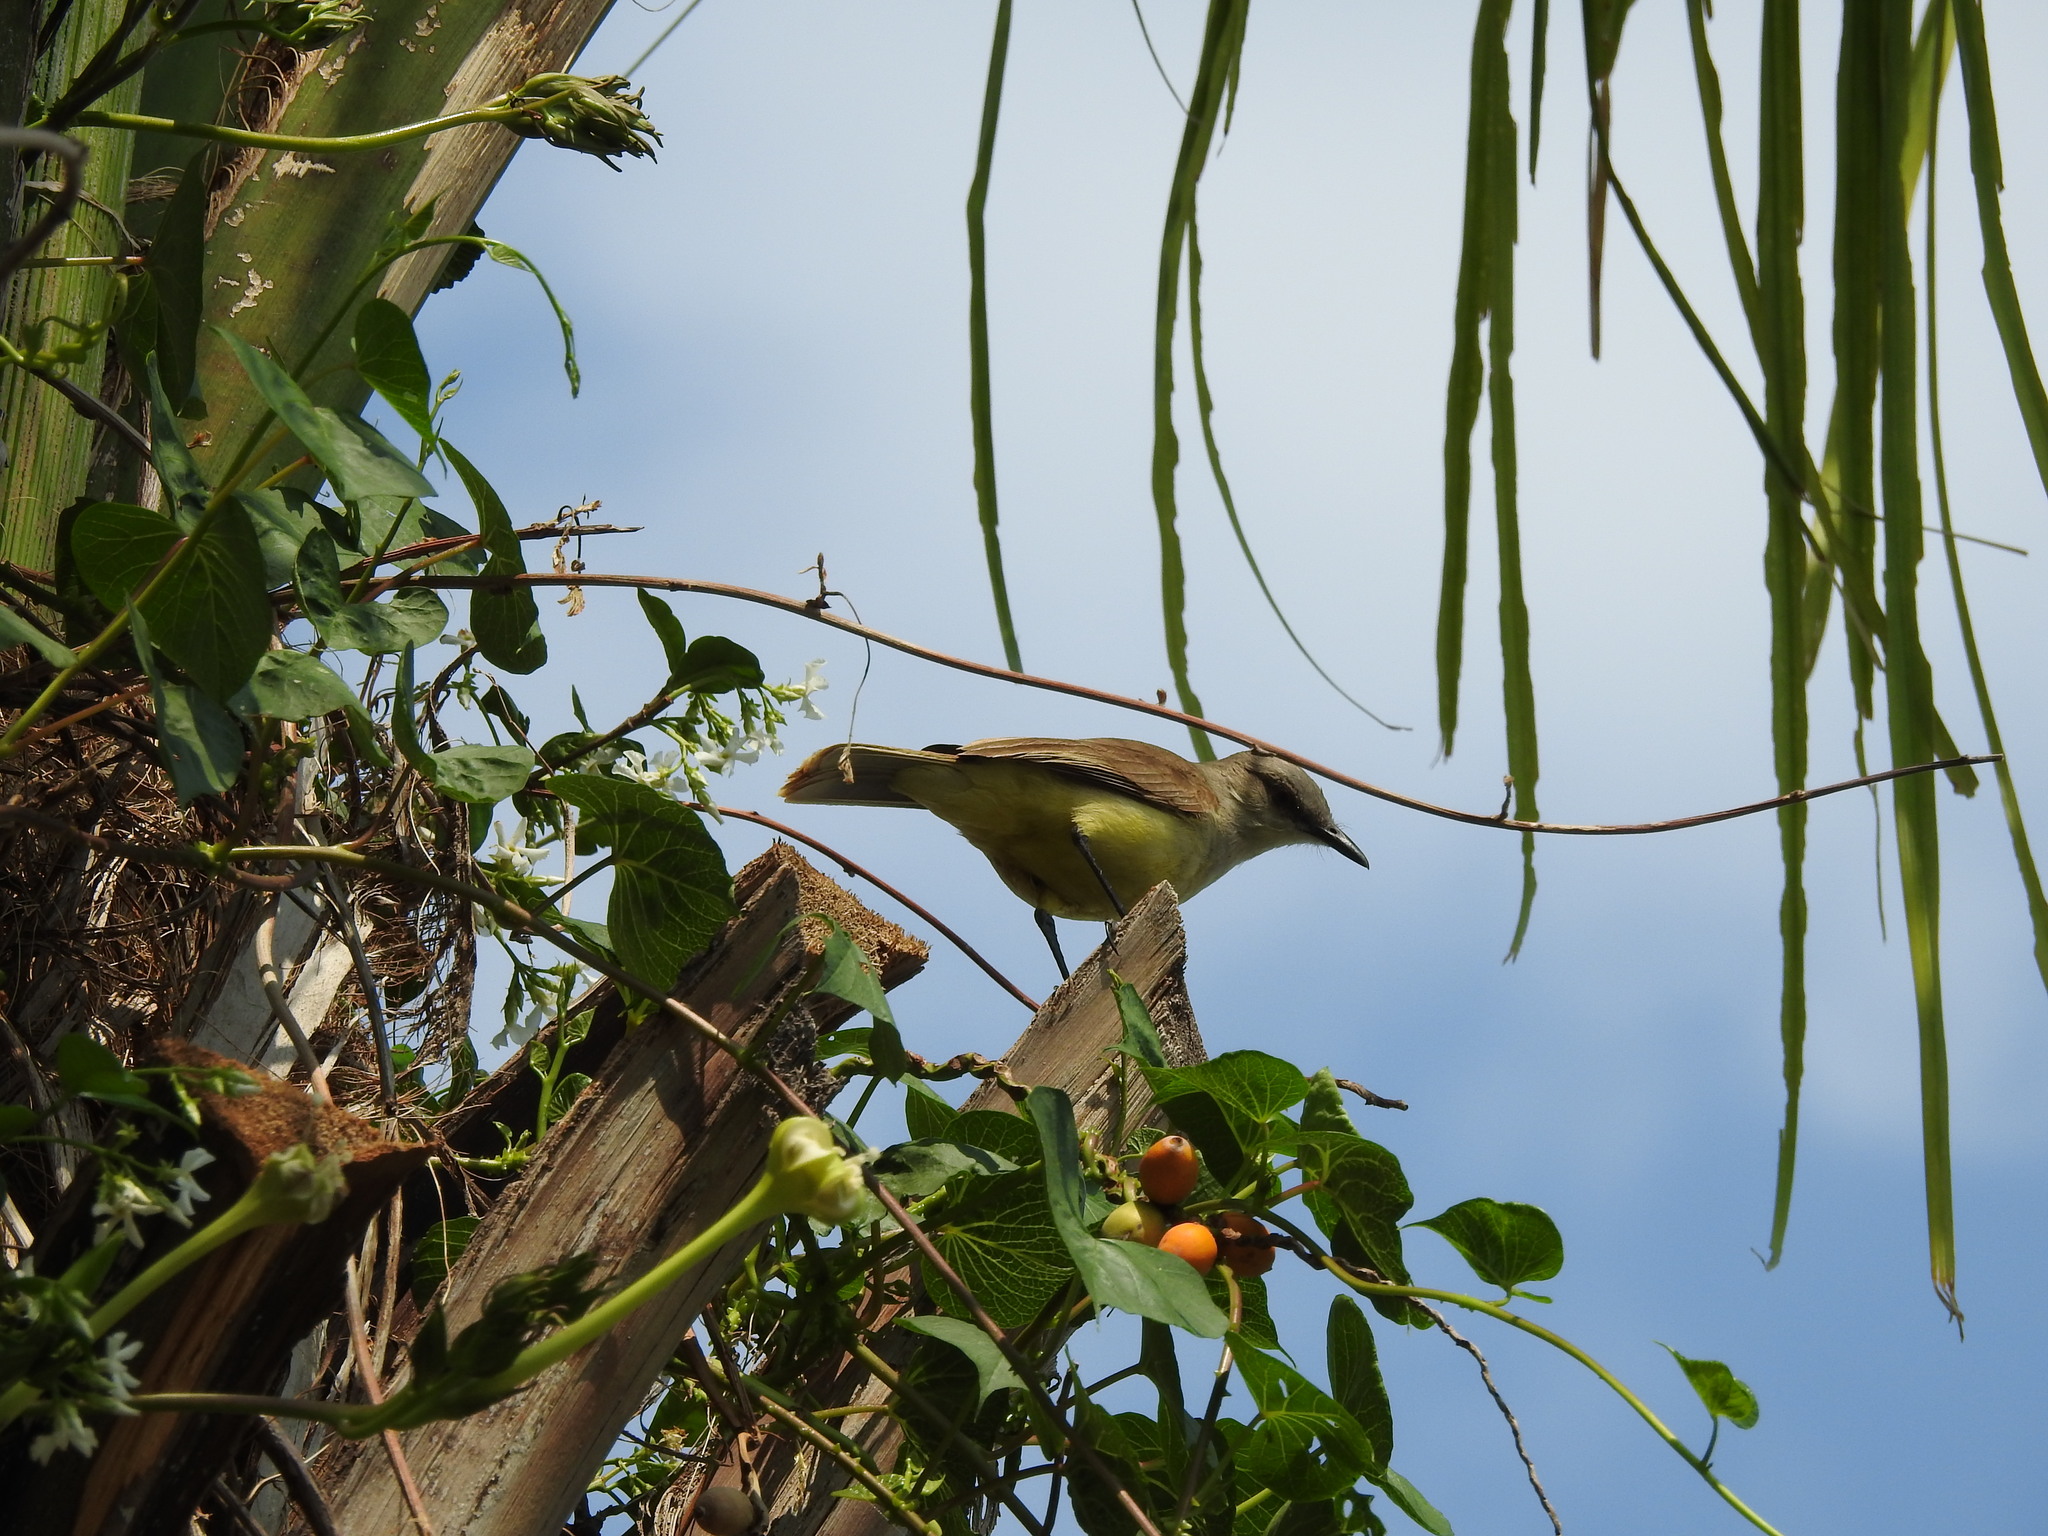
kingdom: Animalia
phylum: Chordata
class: Aves
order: Passeriformes
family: Tyrannidae
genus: Machetornis
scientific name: Machetornis rixosa
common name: Cattle tyrant
